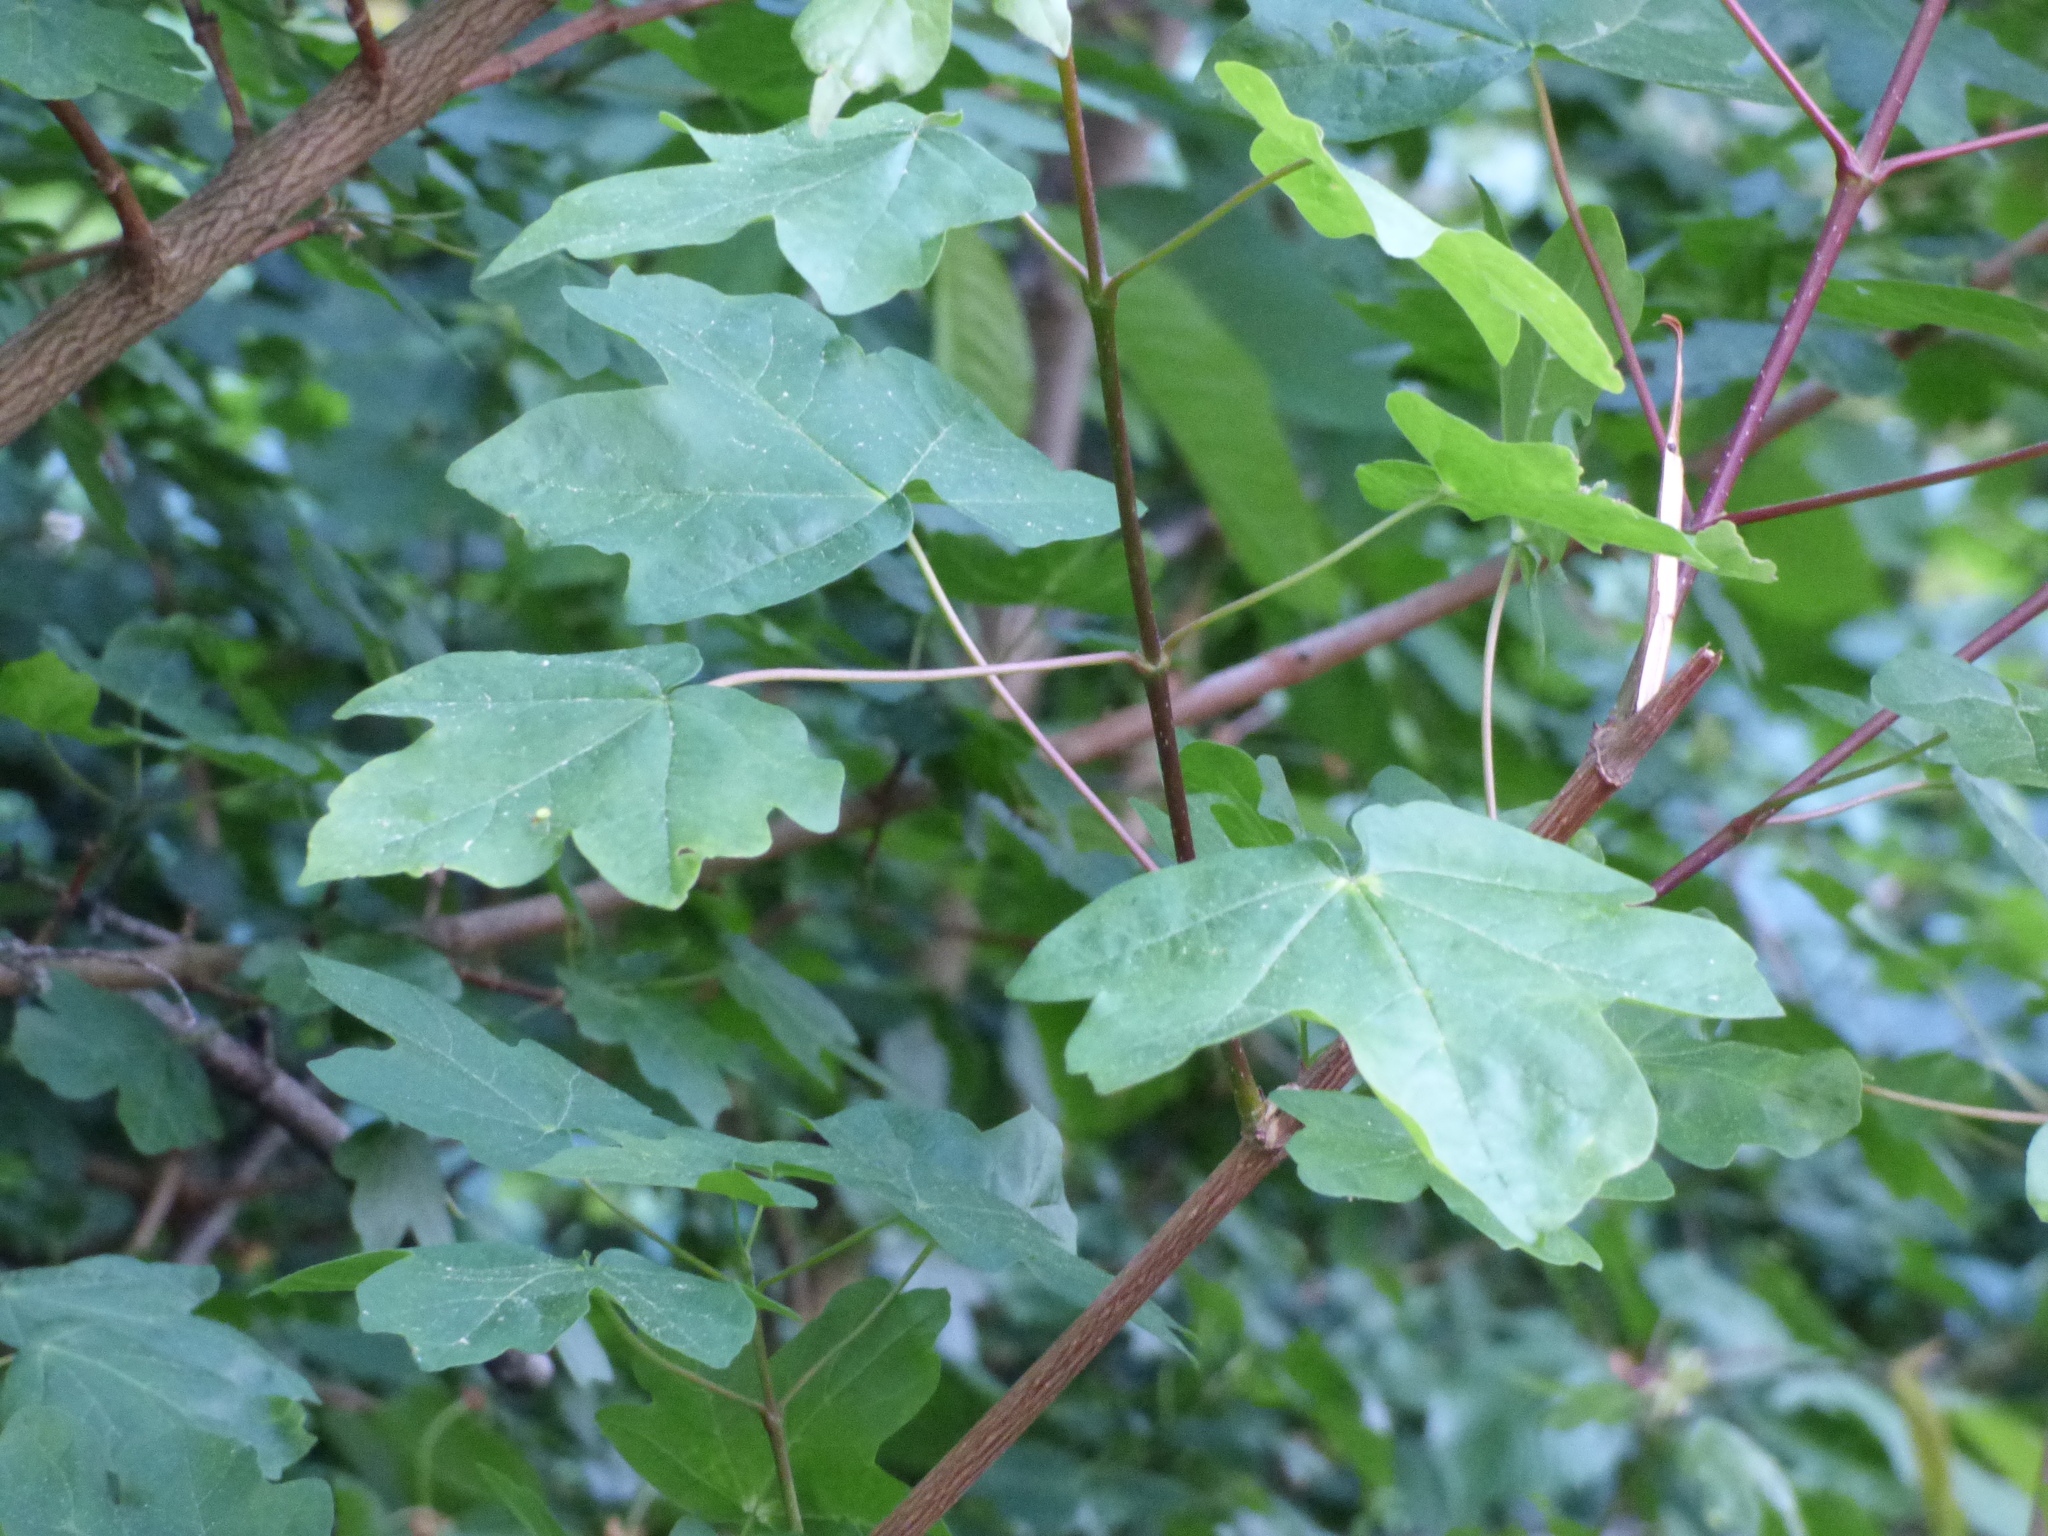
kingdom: Plantae
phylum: Tracheophyta
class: Magnoliopsida
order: Sapindales
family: Sapindaceae
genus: Acer
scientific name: Acer campestre
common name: Field maple
